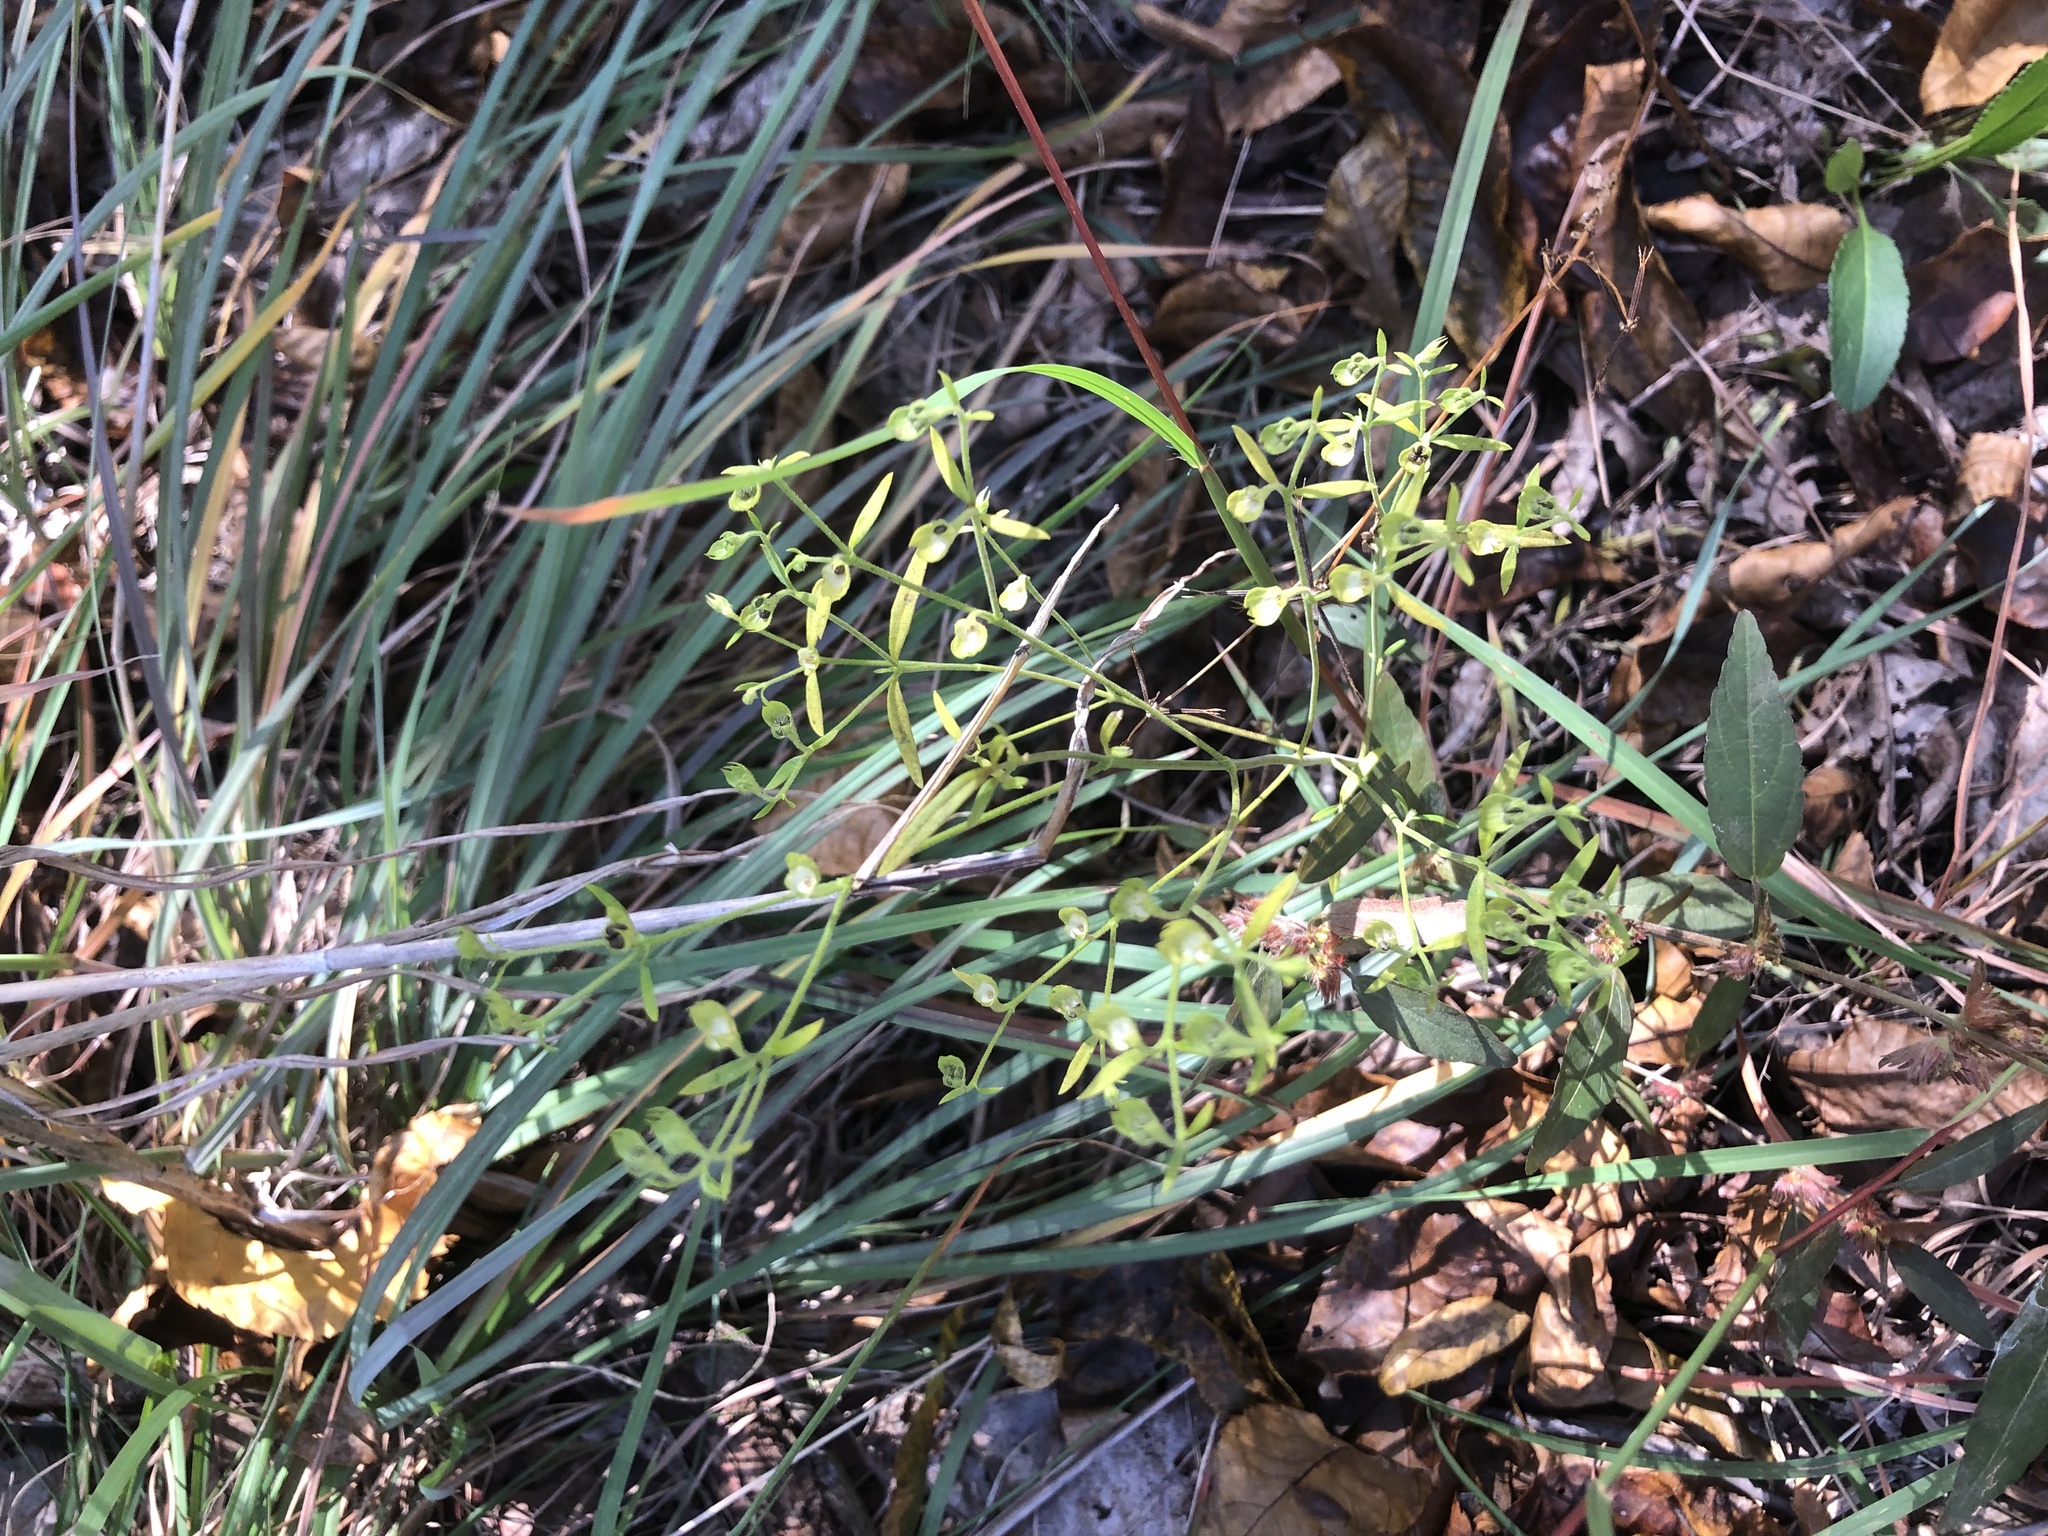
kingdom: Plantae
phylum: Tracheophyta
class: Magnoliopsida
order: Lamiales
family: Lamiaceae
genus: Trichostema
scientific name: Trichostema setaceum
